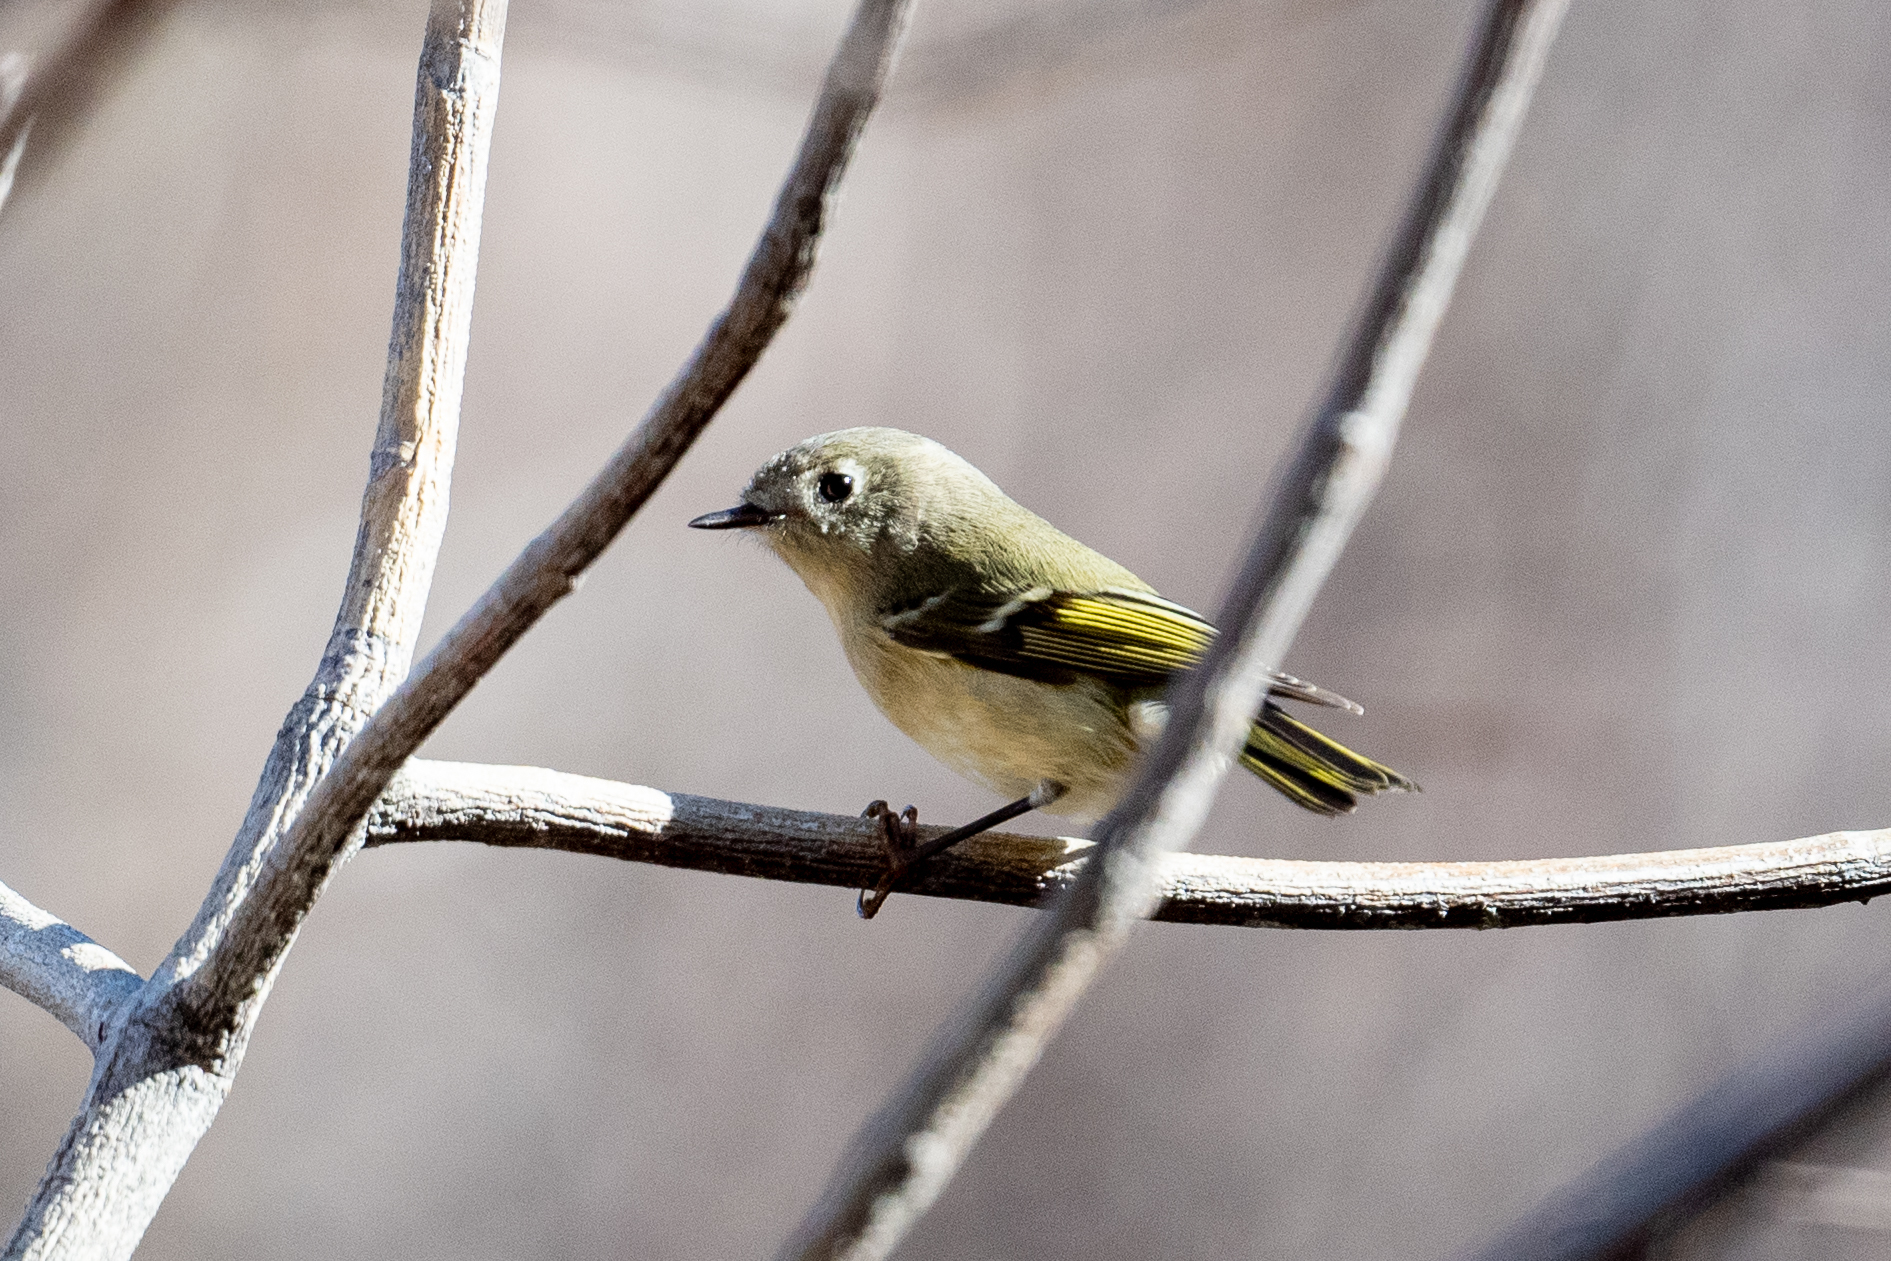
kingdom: Animalia
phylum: Chordata
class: Aves
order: Passeriformes
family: Regulidae
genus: Regulus
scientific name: Regulus calendula
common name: Ruby-crowned kinglet
